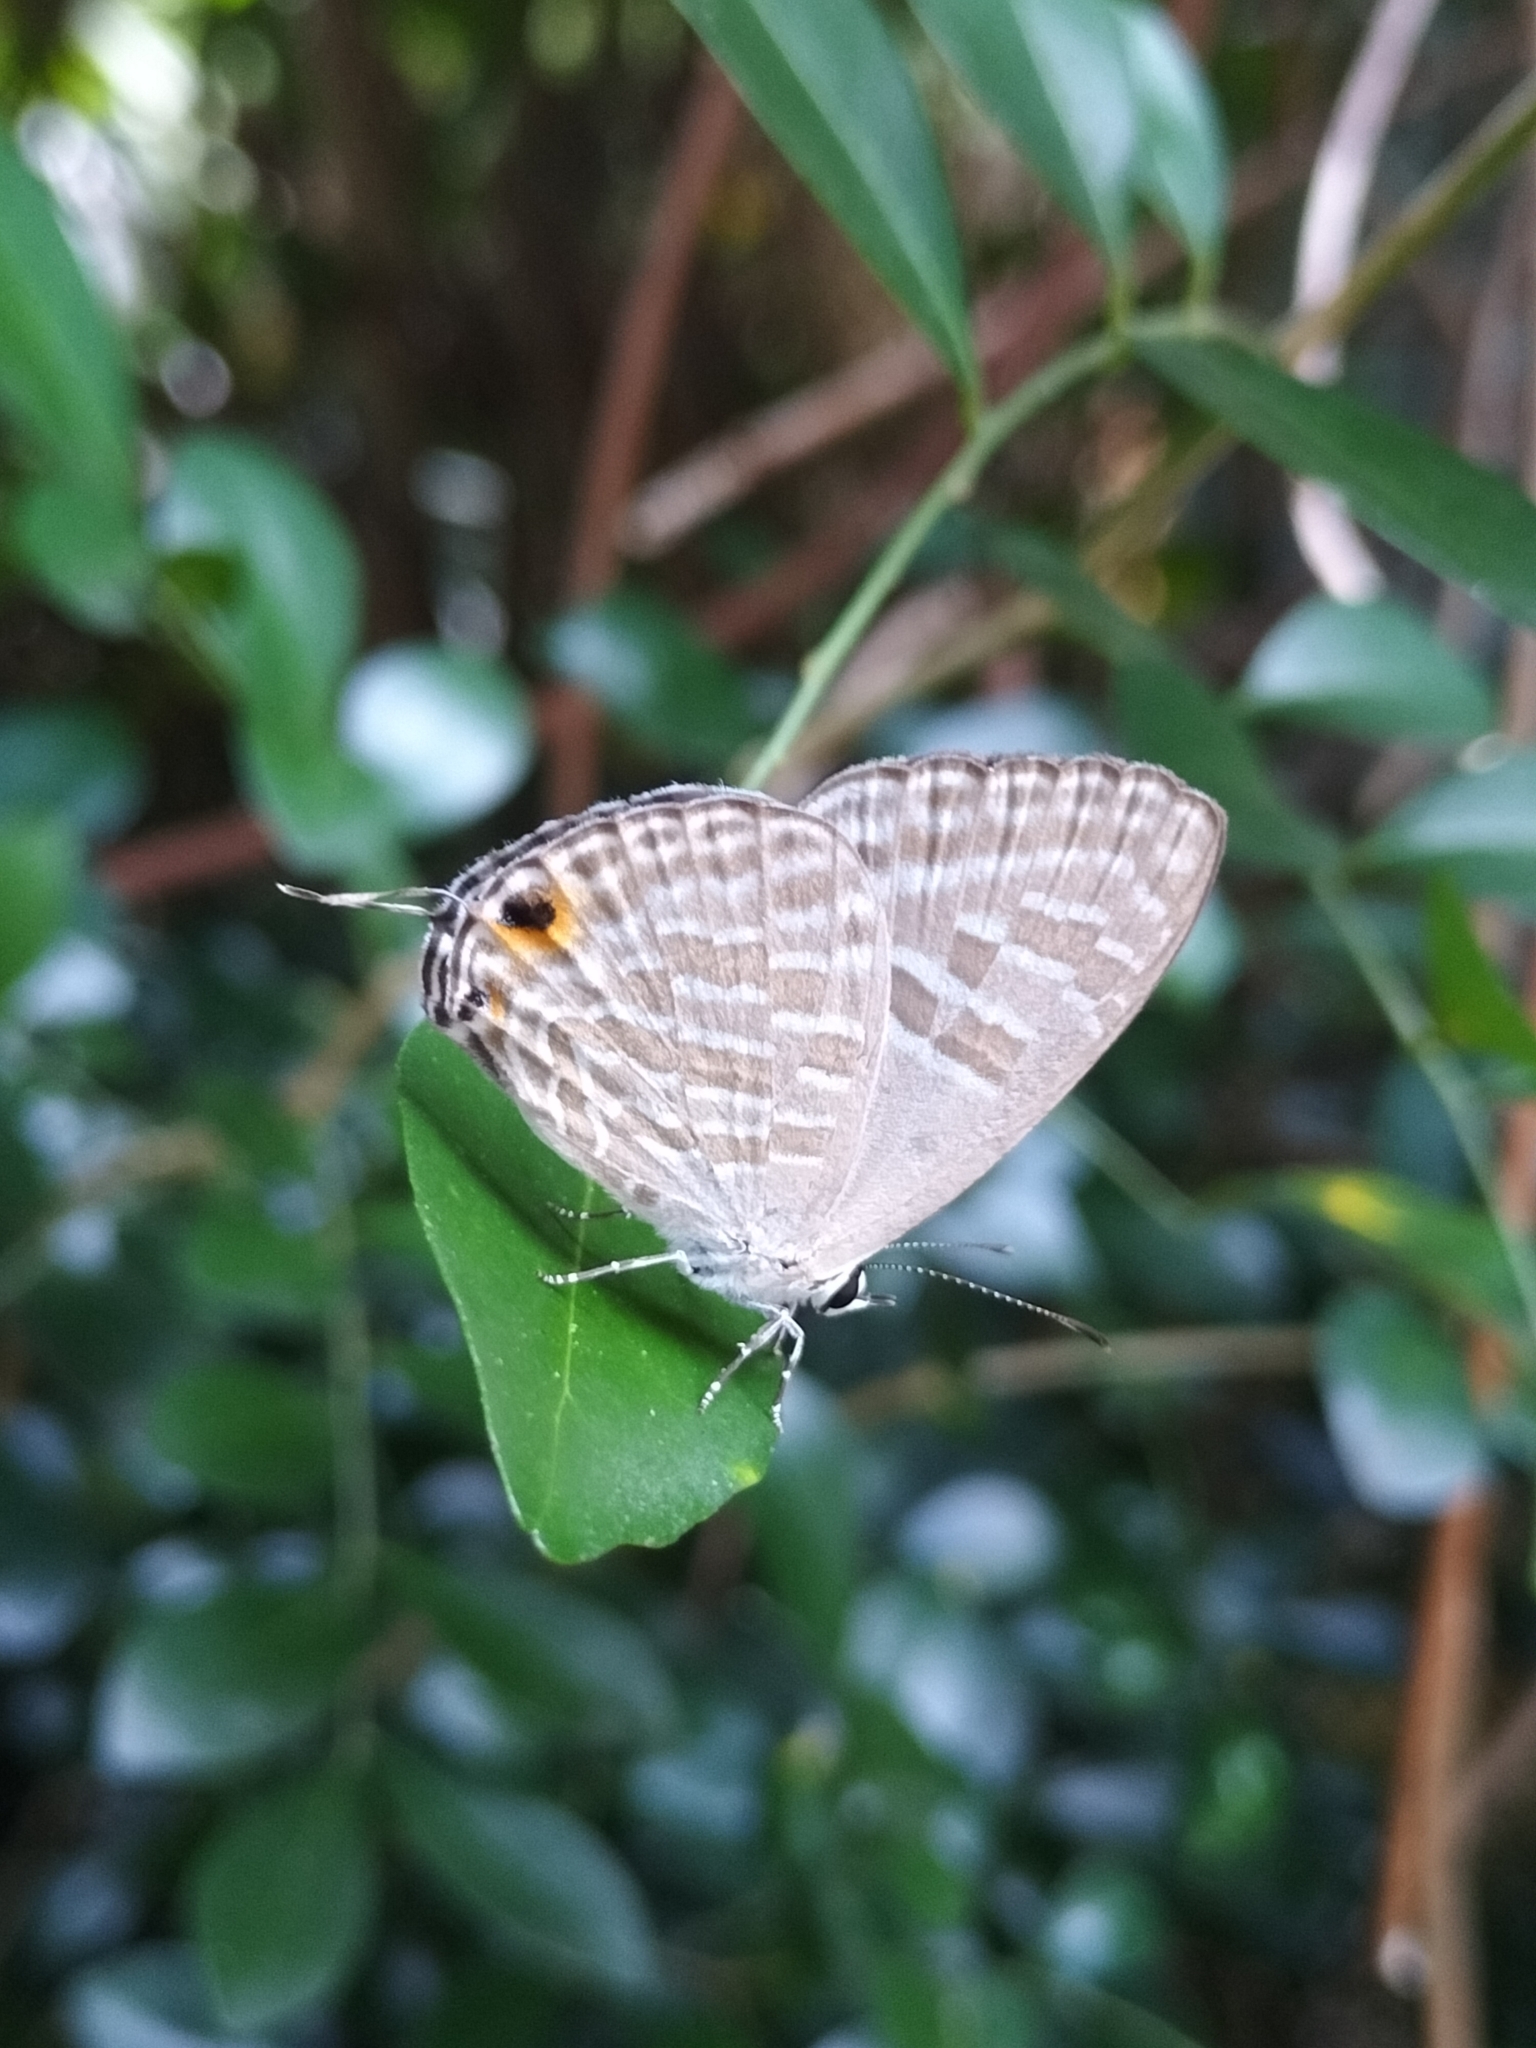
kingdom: Animalia
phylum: Arthropoda
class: Insecta
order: Lepidoptera
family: Lycaenidae
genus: Jamides
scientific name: Jamides alecto
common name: Metallic cerulean
